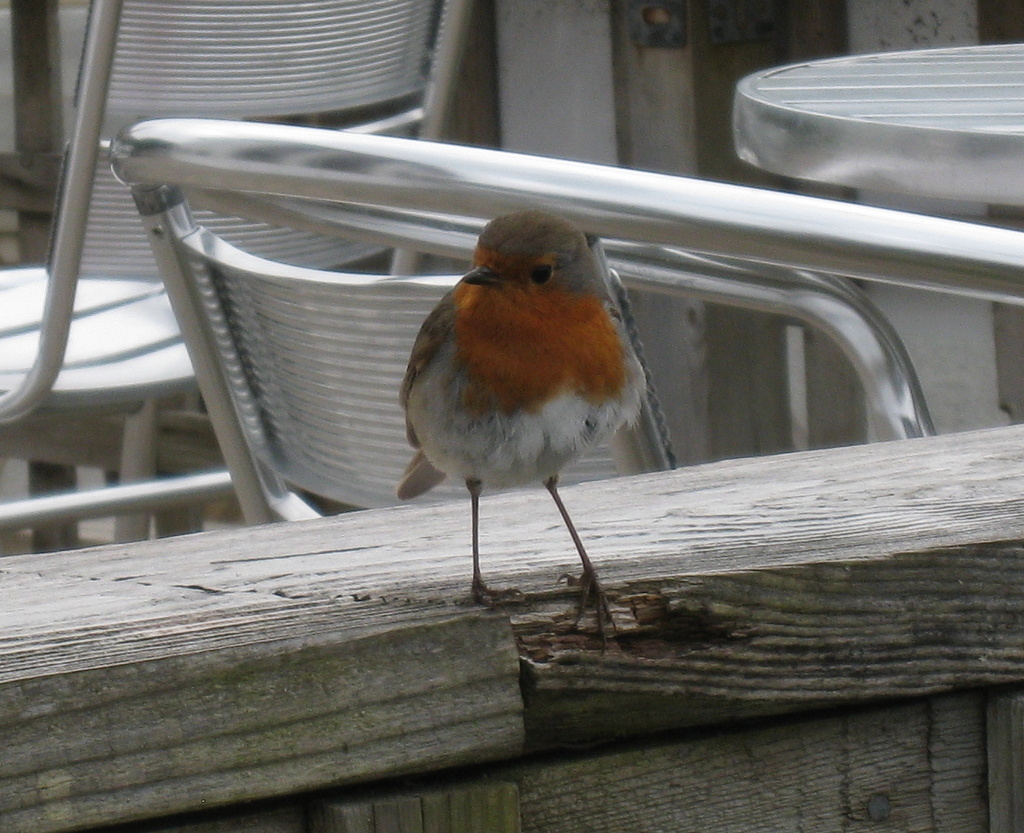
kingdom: Animalia
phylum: Chordata
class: Aves
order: Passeriformes
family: Muscicapidae
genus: Erithacus
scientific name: Erithacus rubecula
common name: European robin
